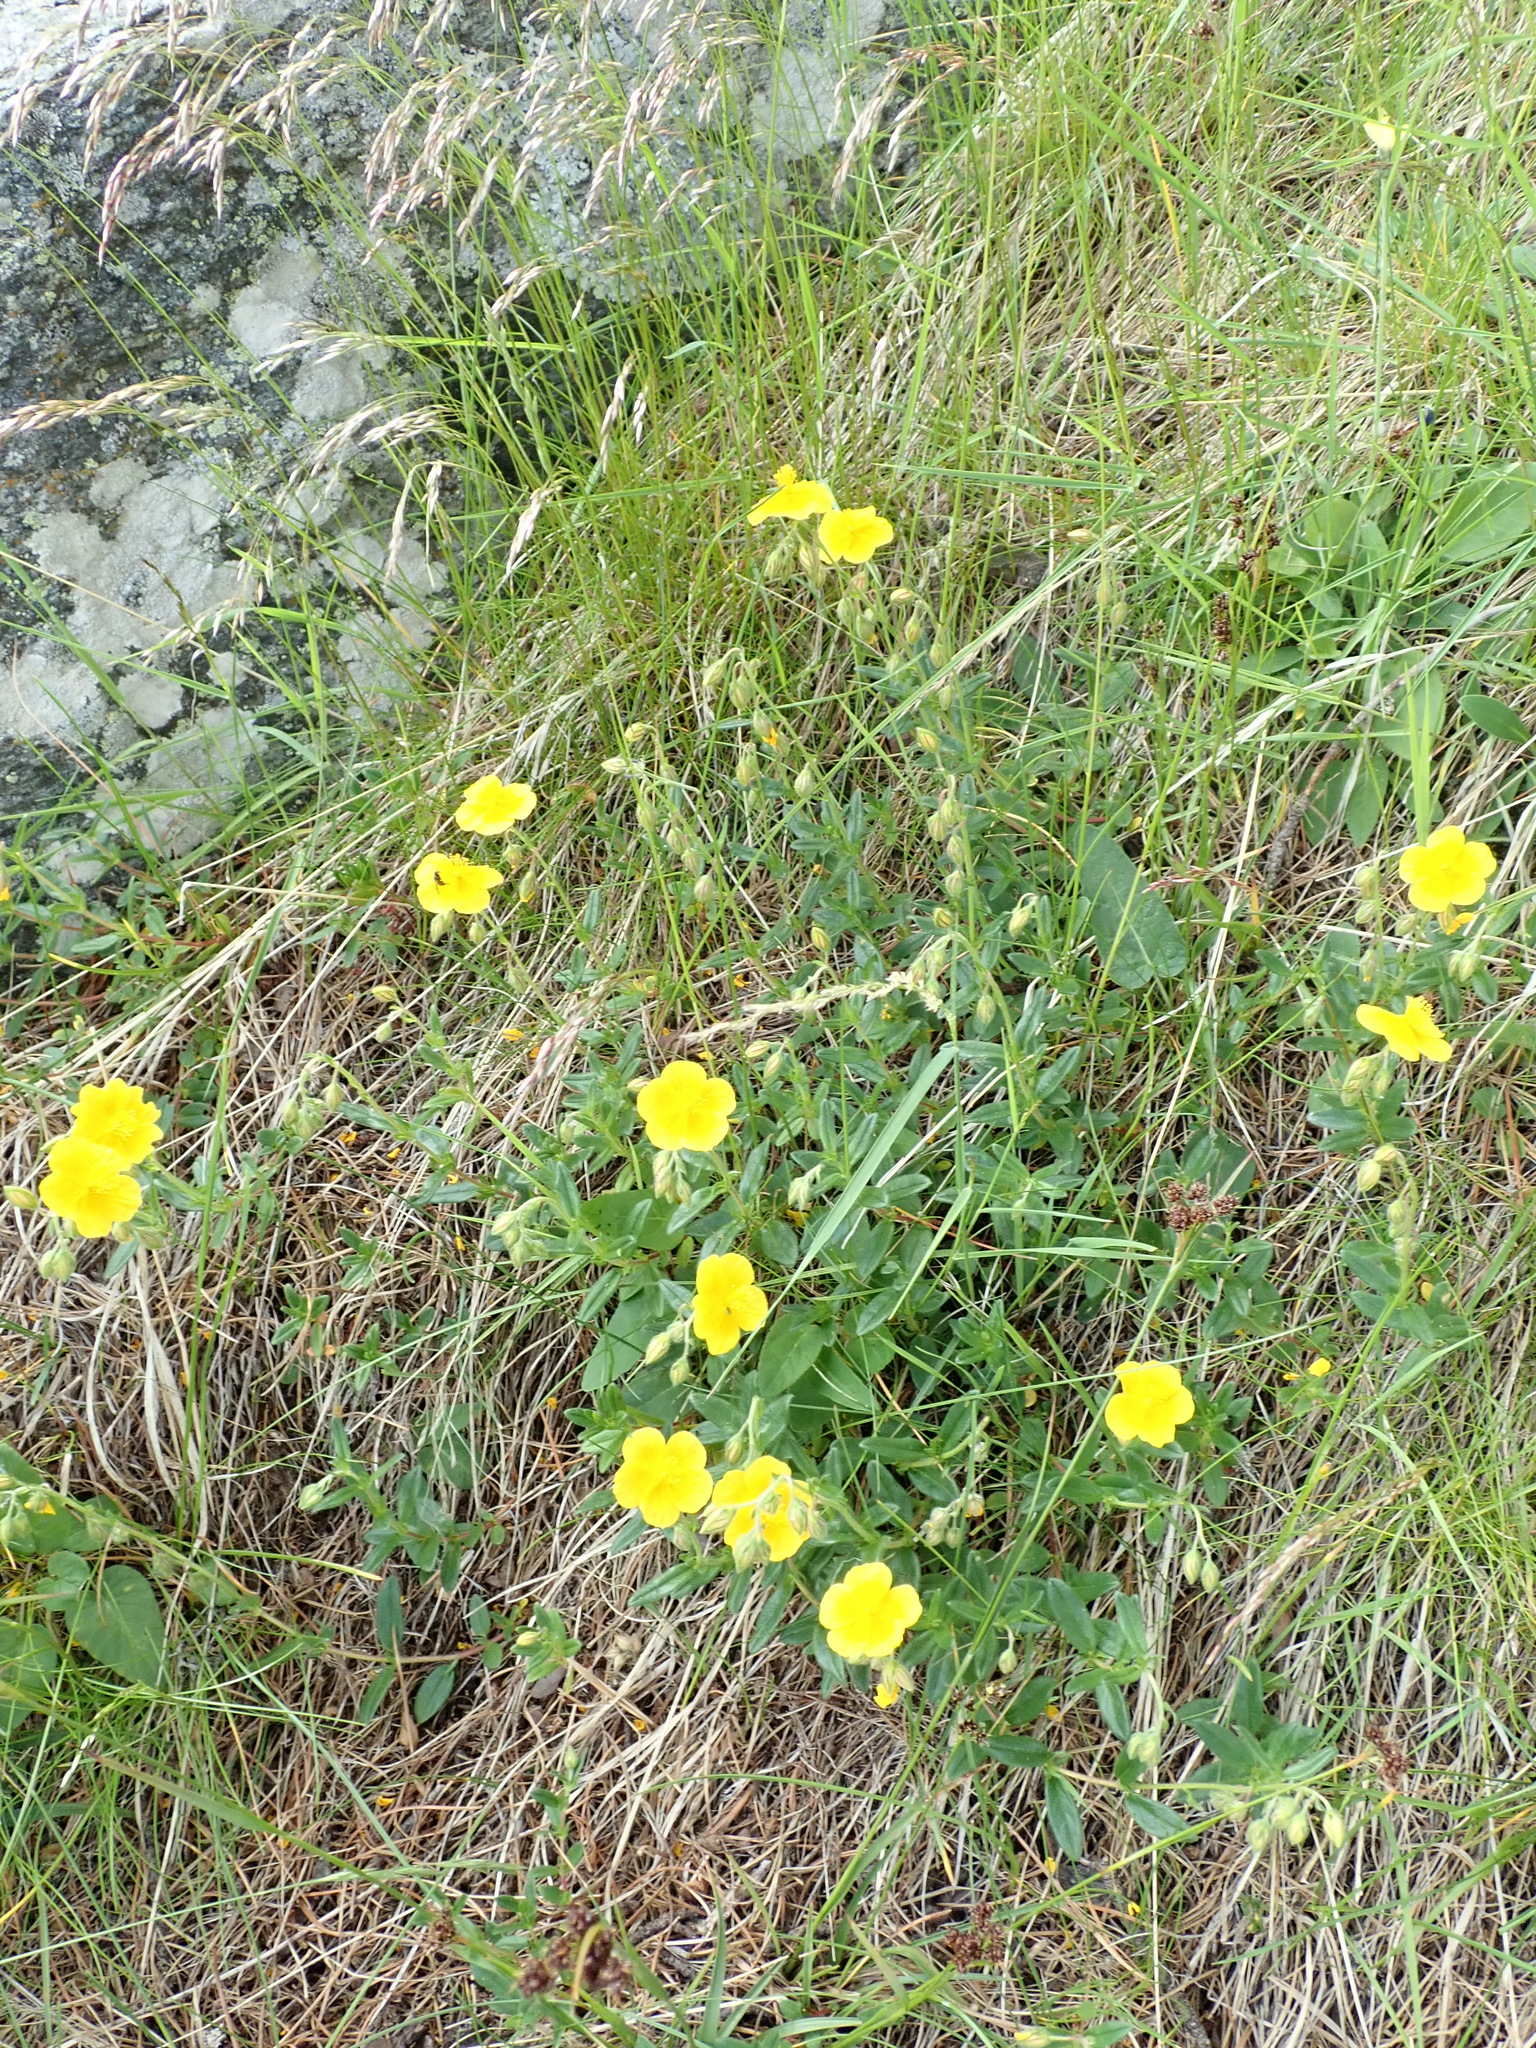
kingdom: Plantae
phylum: Tracheophyta
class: Magnoliopsida
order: Malvales
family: Cistaceae
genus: Helianthemum
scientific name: Helianthemum nummularium
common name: Common rock-rose
